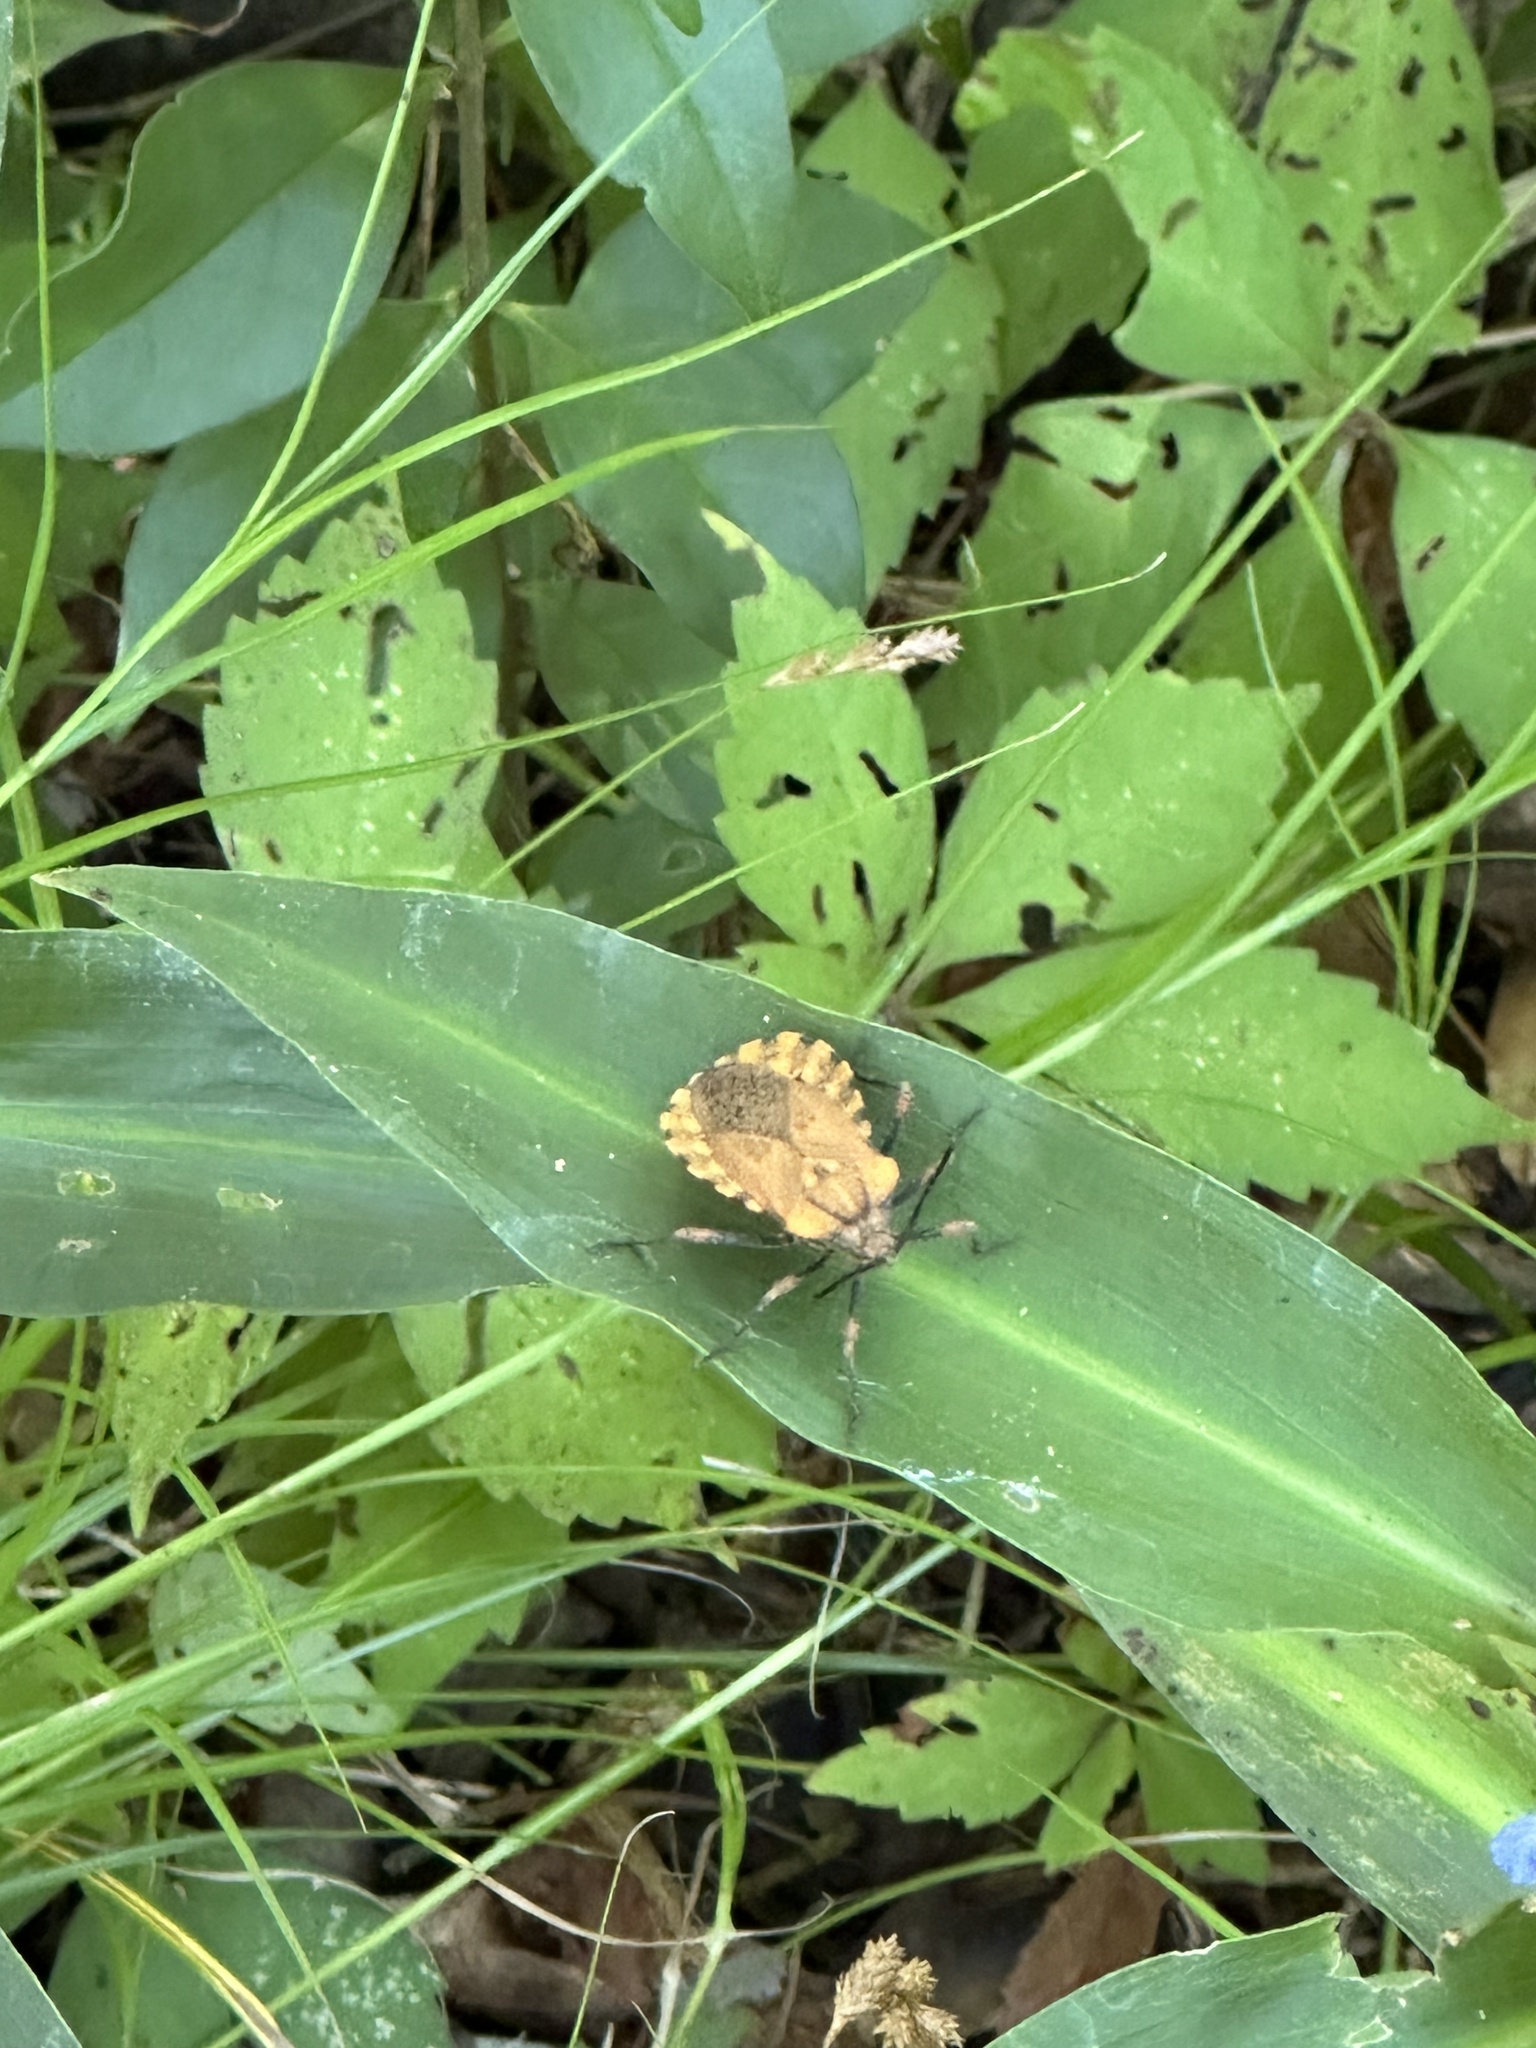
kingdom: Animalia
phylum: Arthropoda
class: Insecta
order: Hemiptera
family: Coreidae
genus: Spartocera
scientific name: Spartocera fusca
